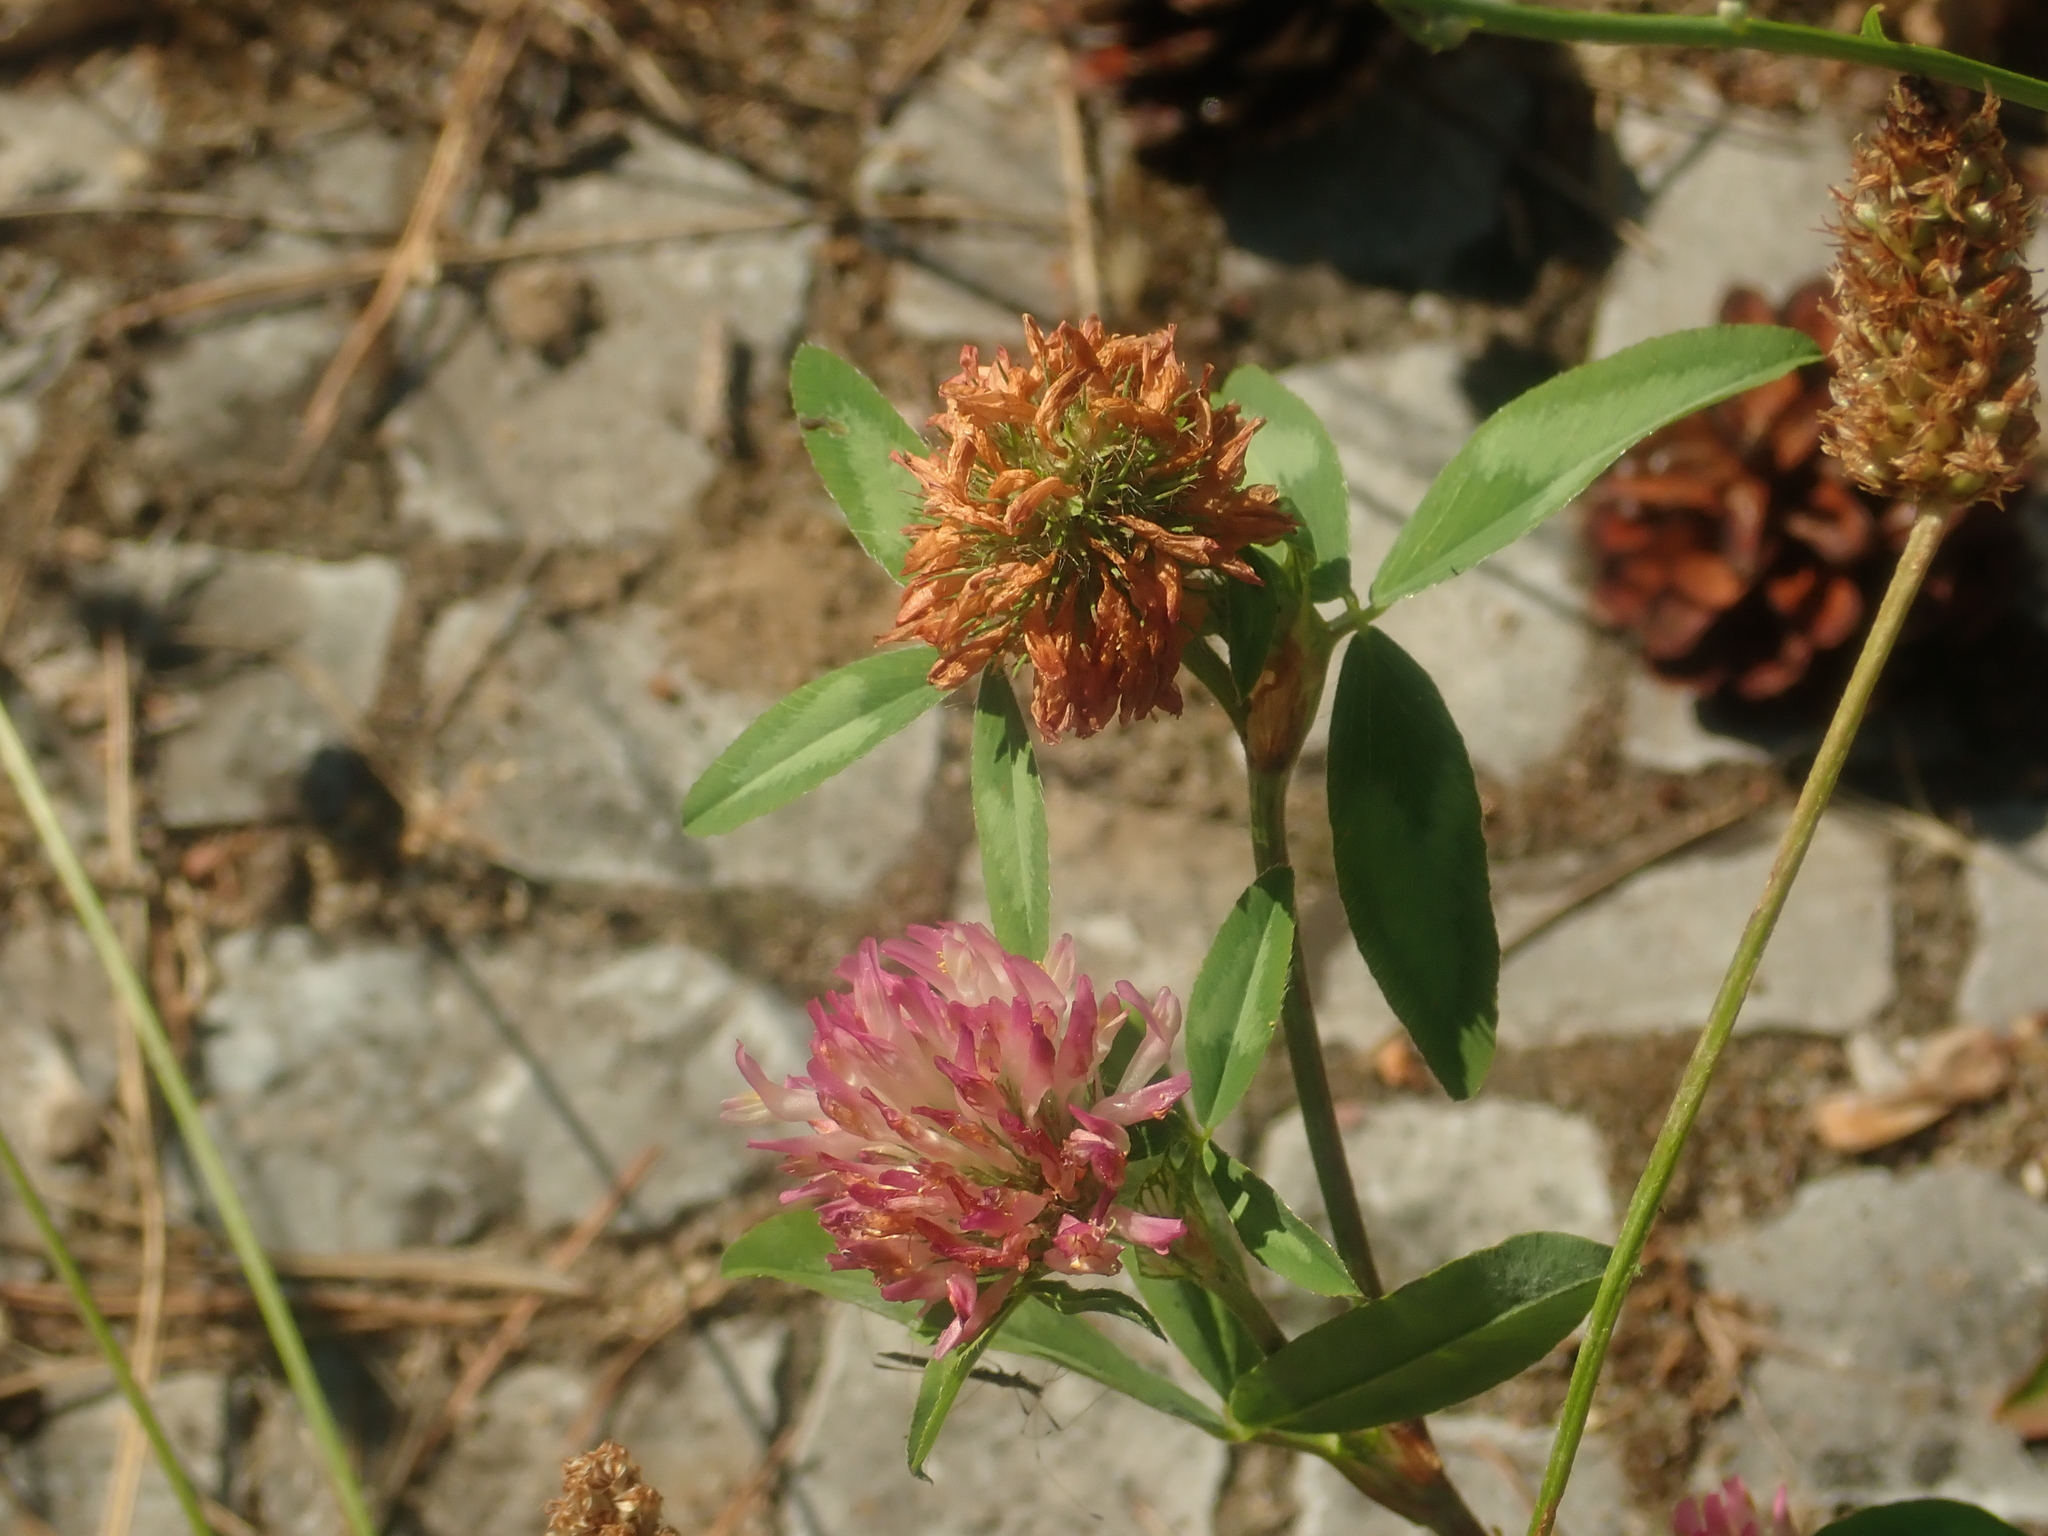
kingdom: Plantae
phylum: Tracheophyta
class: Magnoliopsida
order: Fabales
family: Fabaceae
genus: Trifolium
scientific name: Trifolium pratense
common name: Red clover
